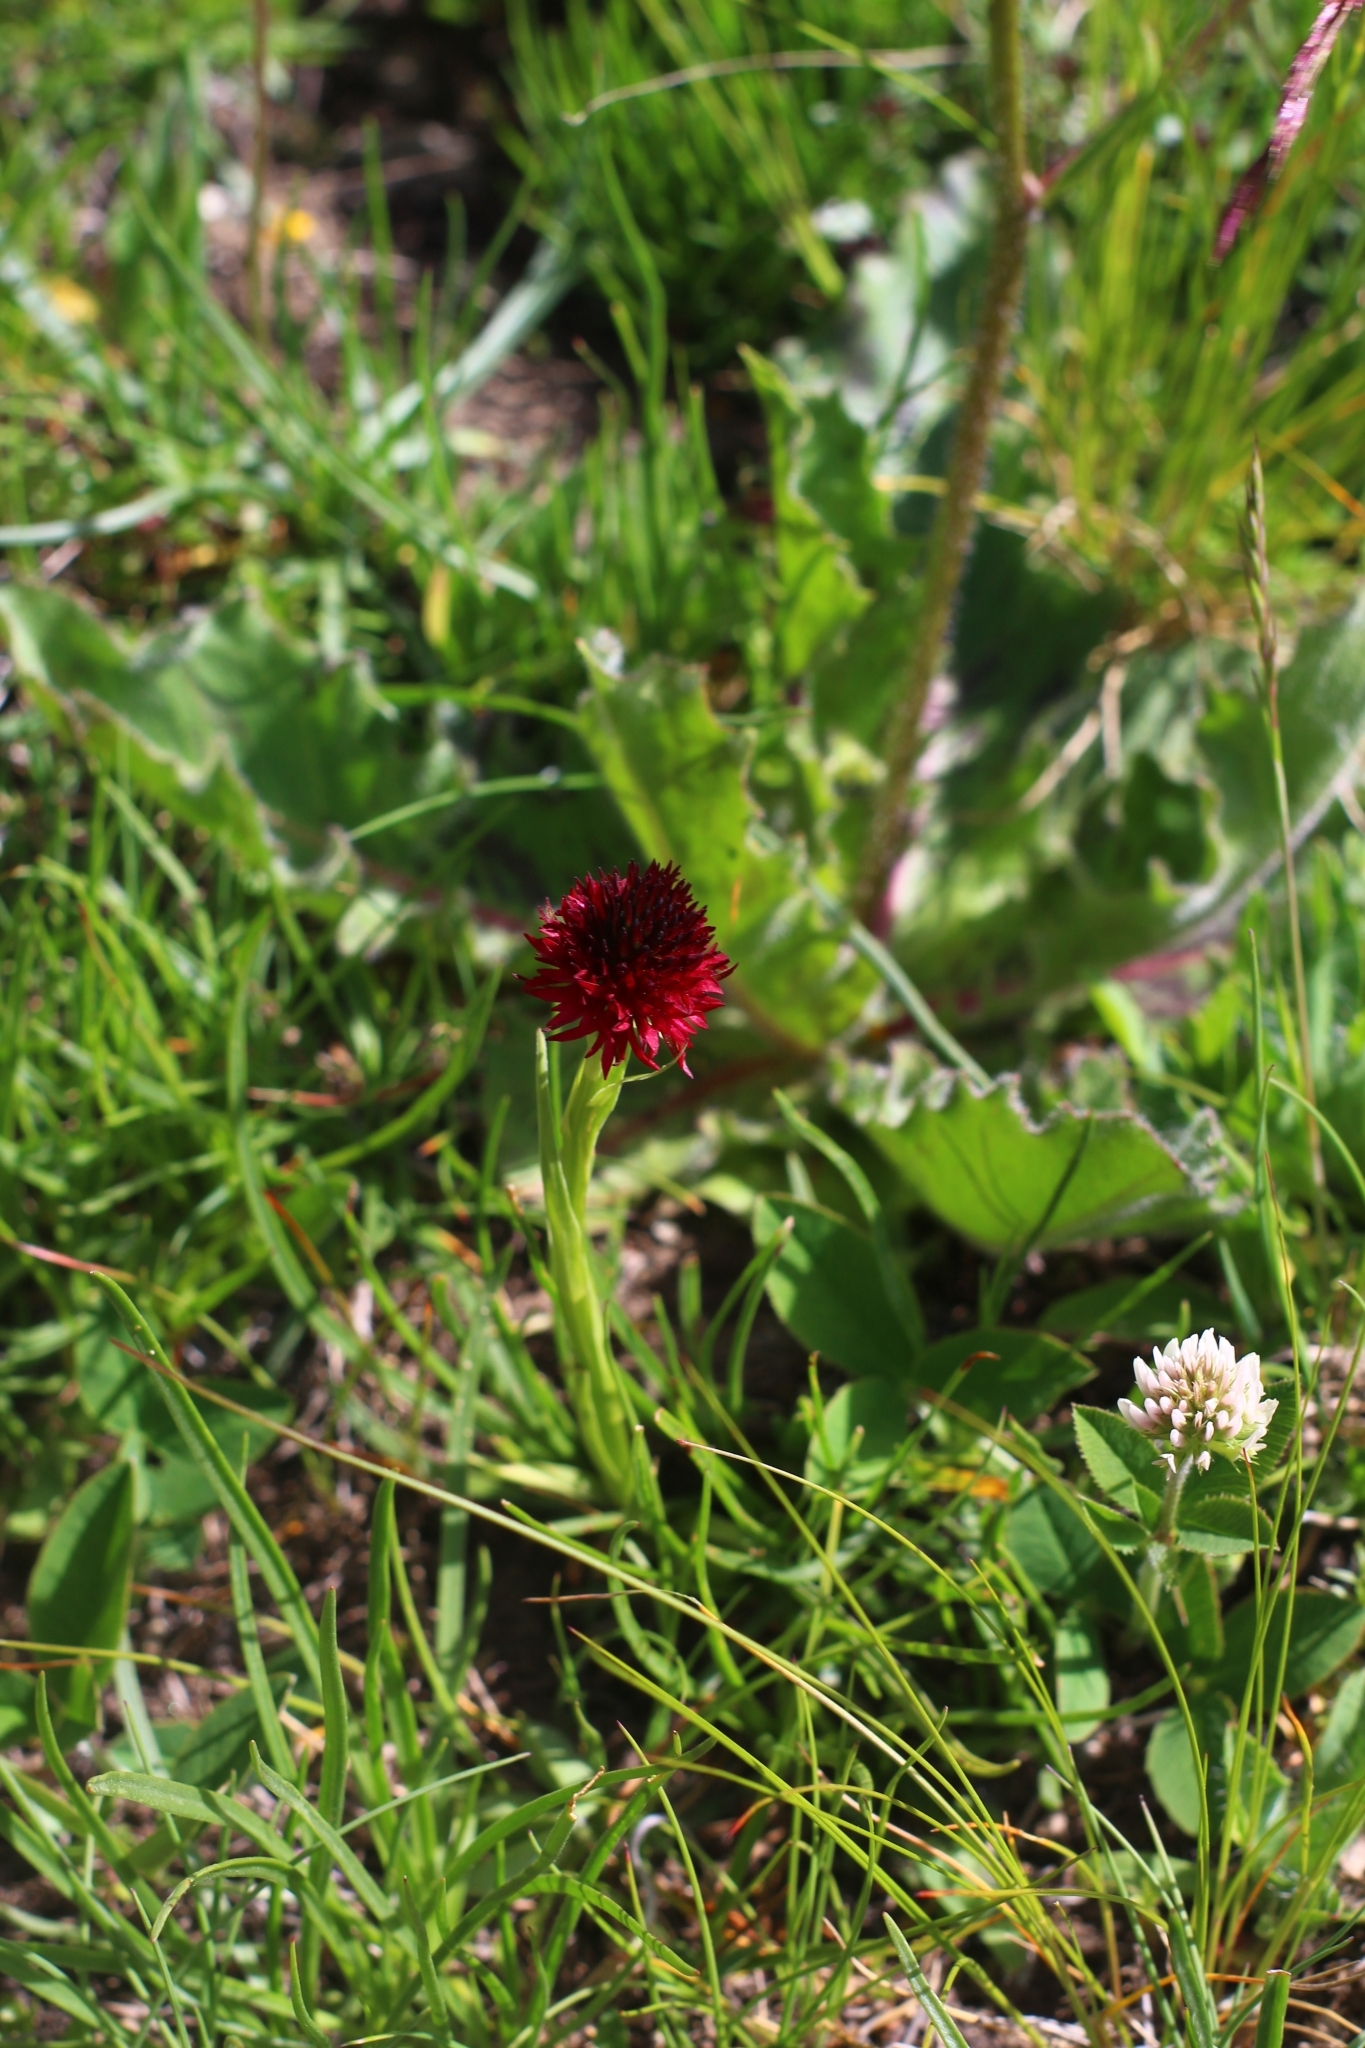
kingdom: Plantae
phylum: Tracheophyta
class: Liliopsida
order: Asparagales
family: Orchidaceae
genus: Gymnadenia
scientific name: Gymnadenia rhellicani
